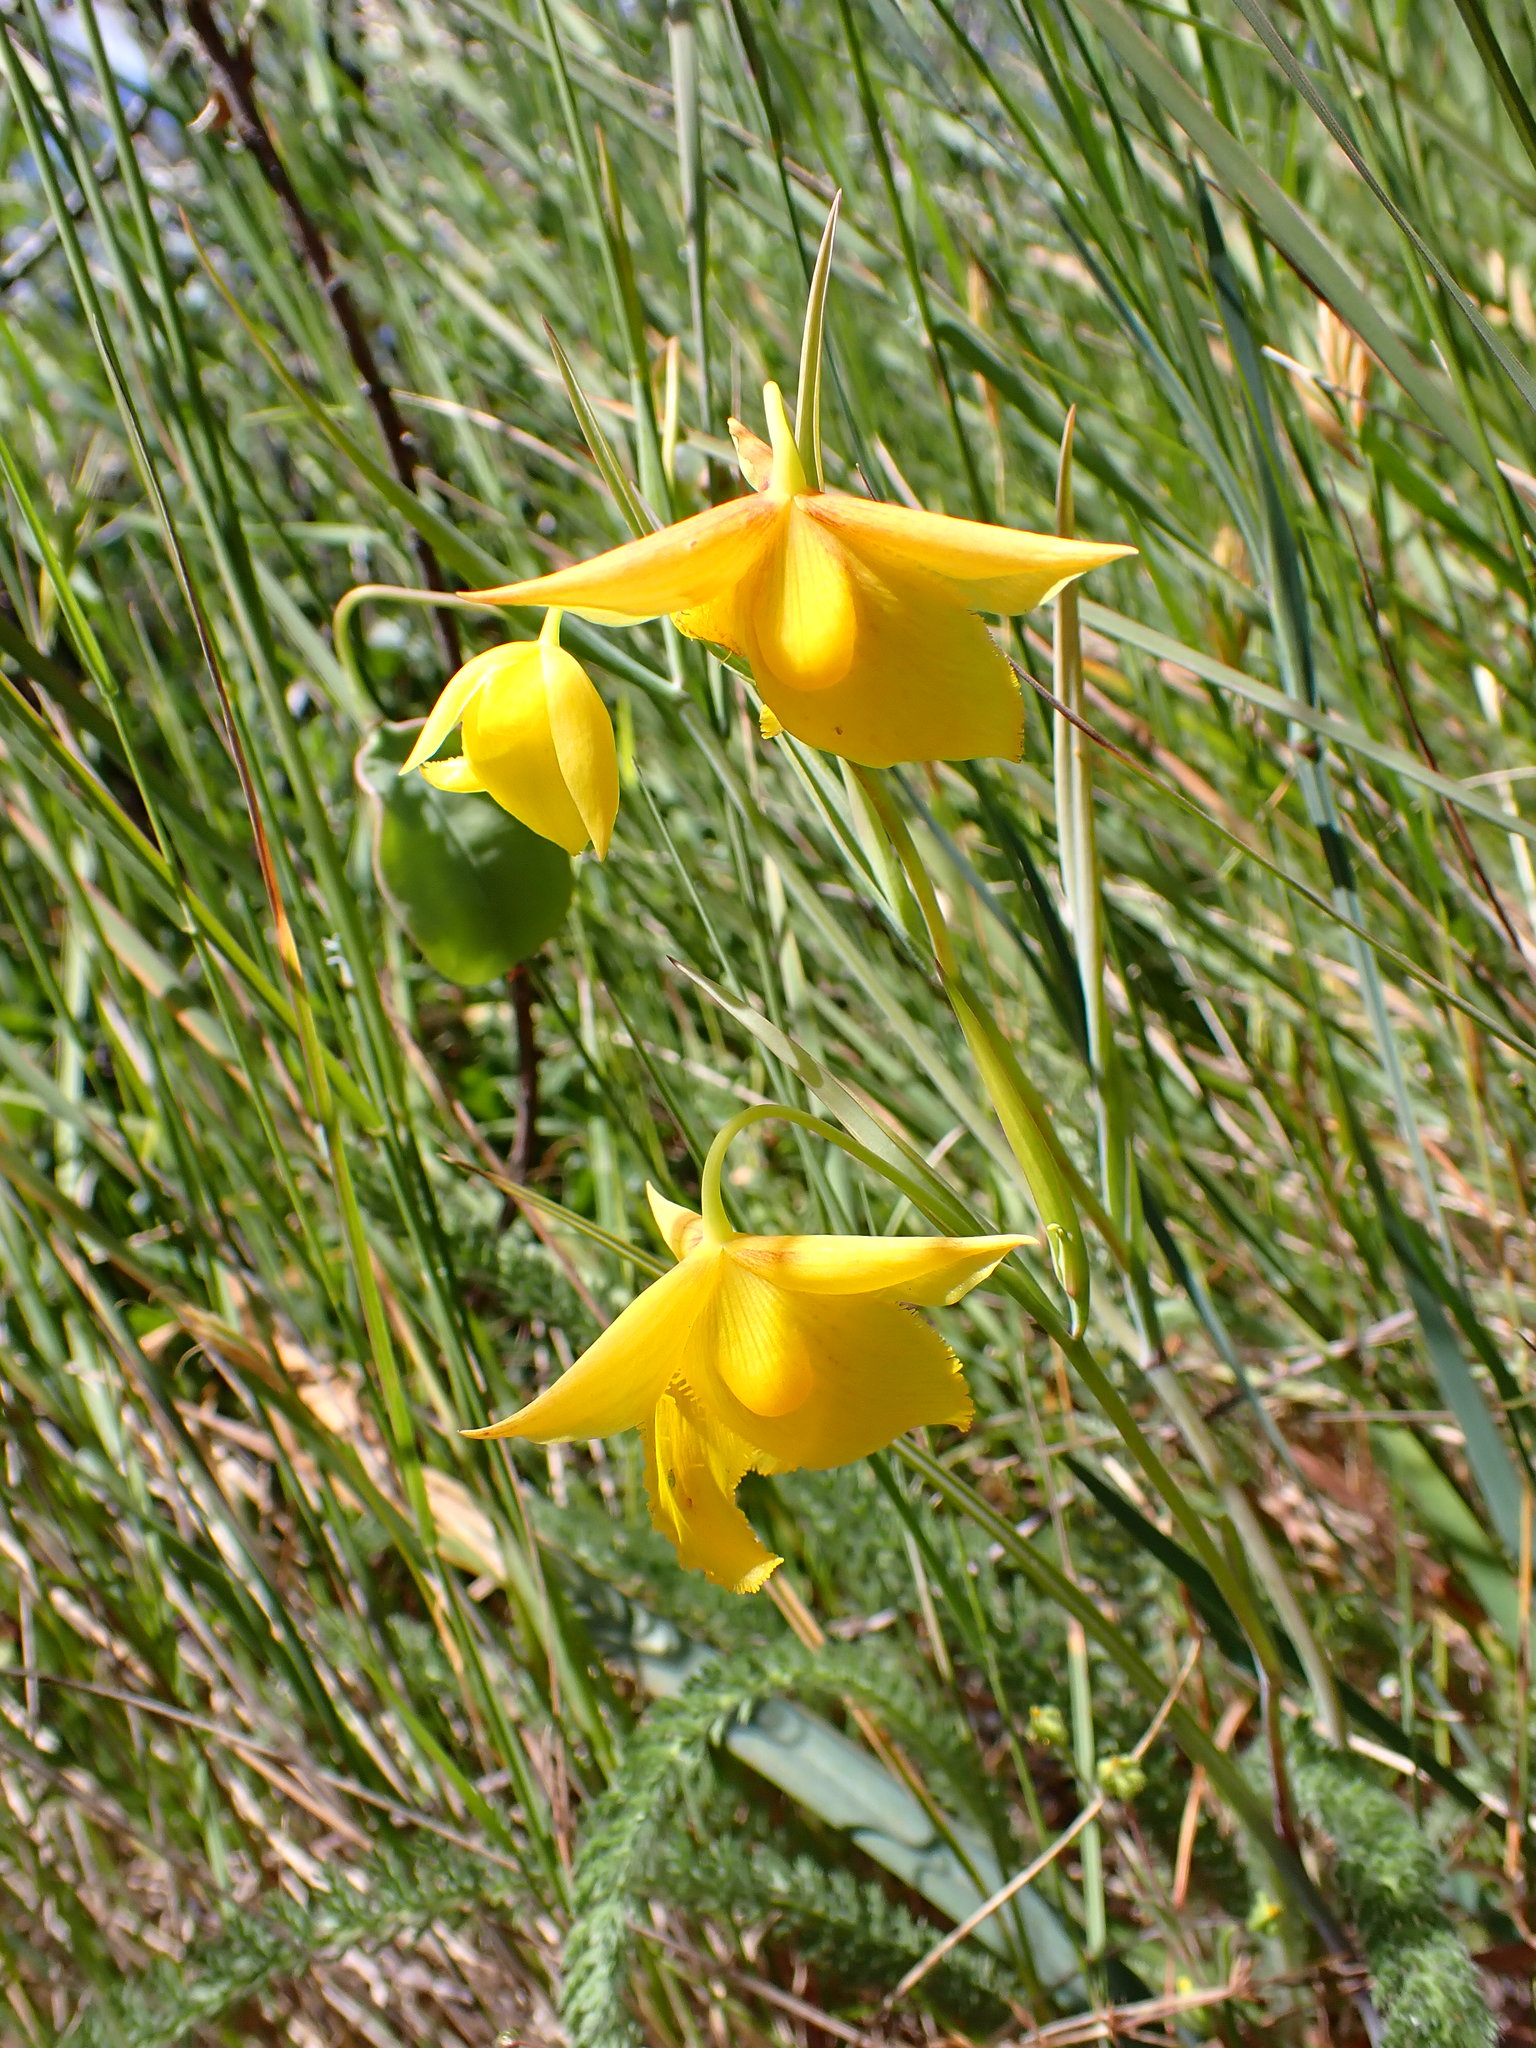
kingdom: Plantae
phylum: Tracheophyta
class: Liliopsida
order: Liliales
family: Liliaceae
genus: Calochortus
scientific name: Calochortus amabilis
